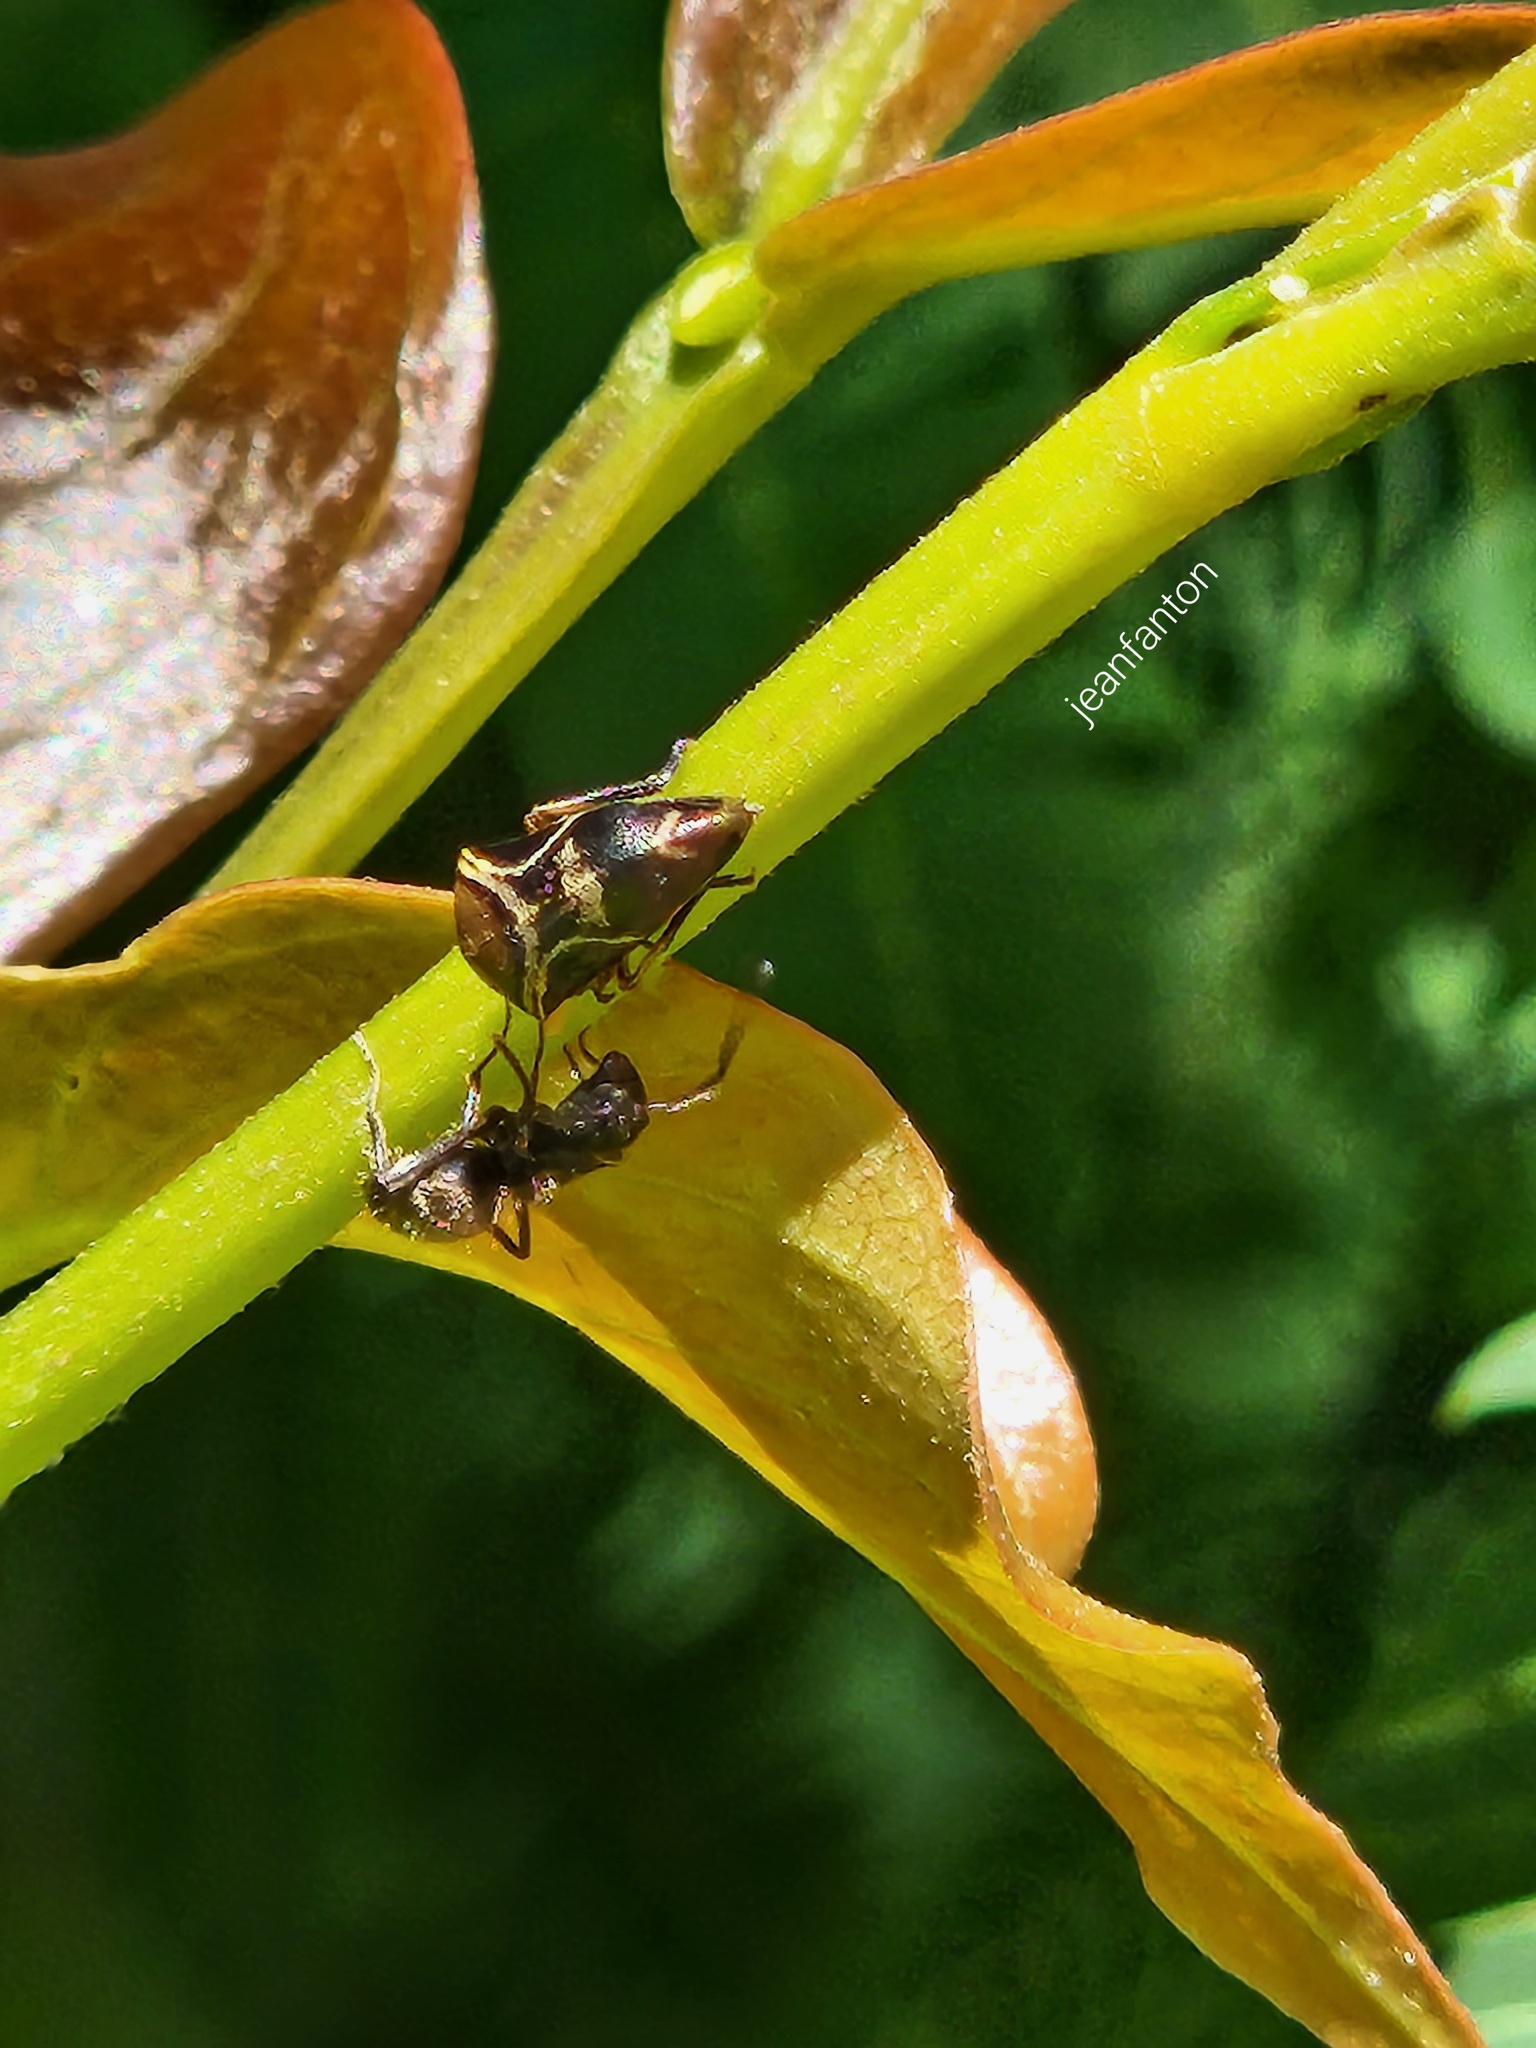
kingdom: Animalia
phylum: Arthropoda
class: Insecta
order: Hemiptera
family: Membracidae
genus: Horiola
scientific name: Horiola picta
